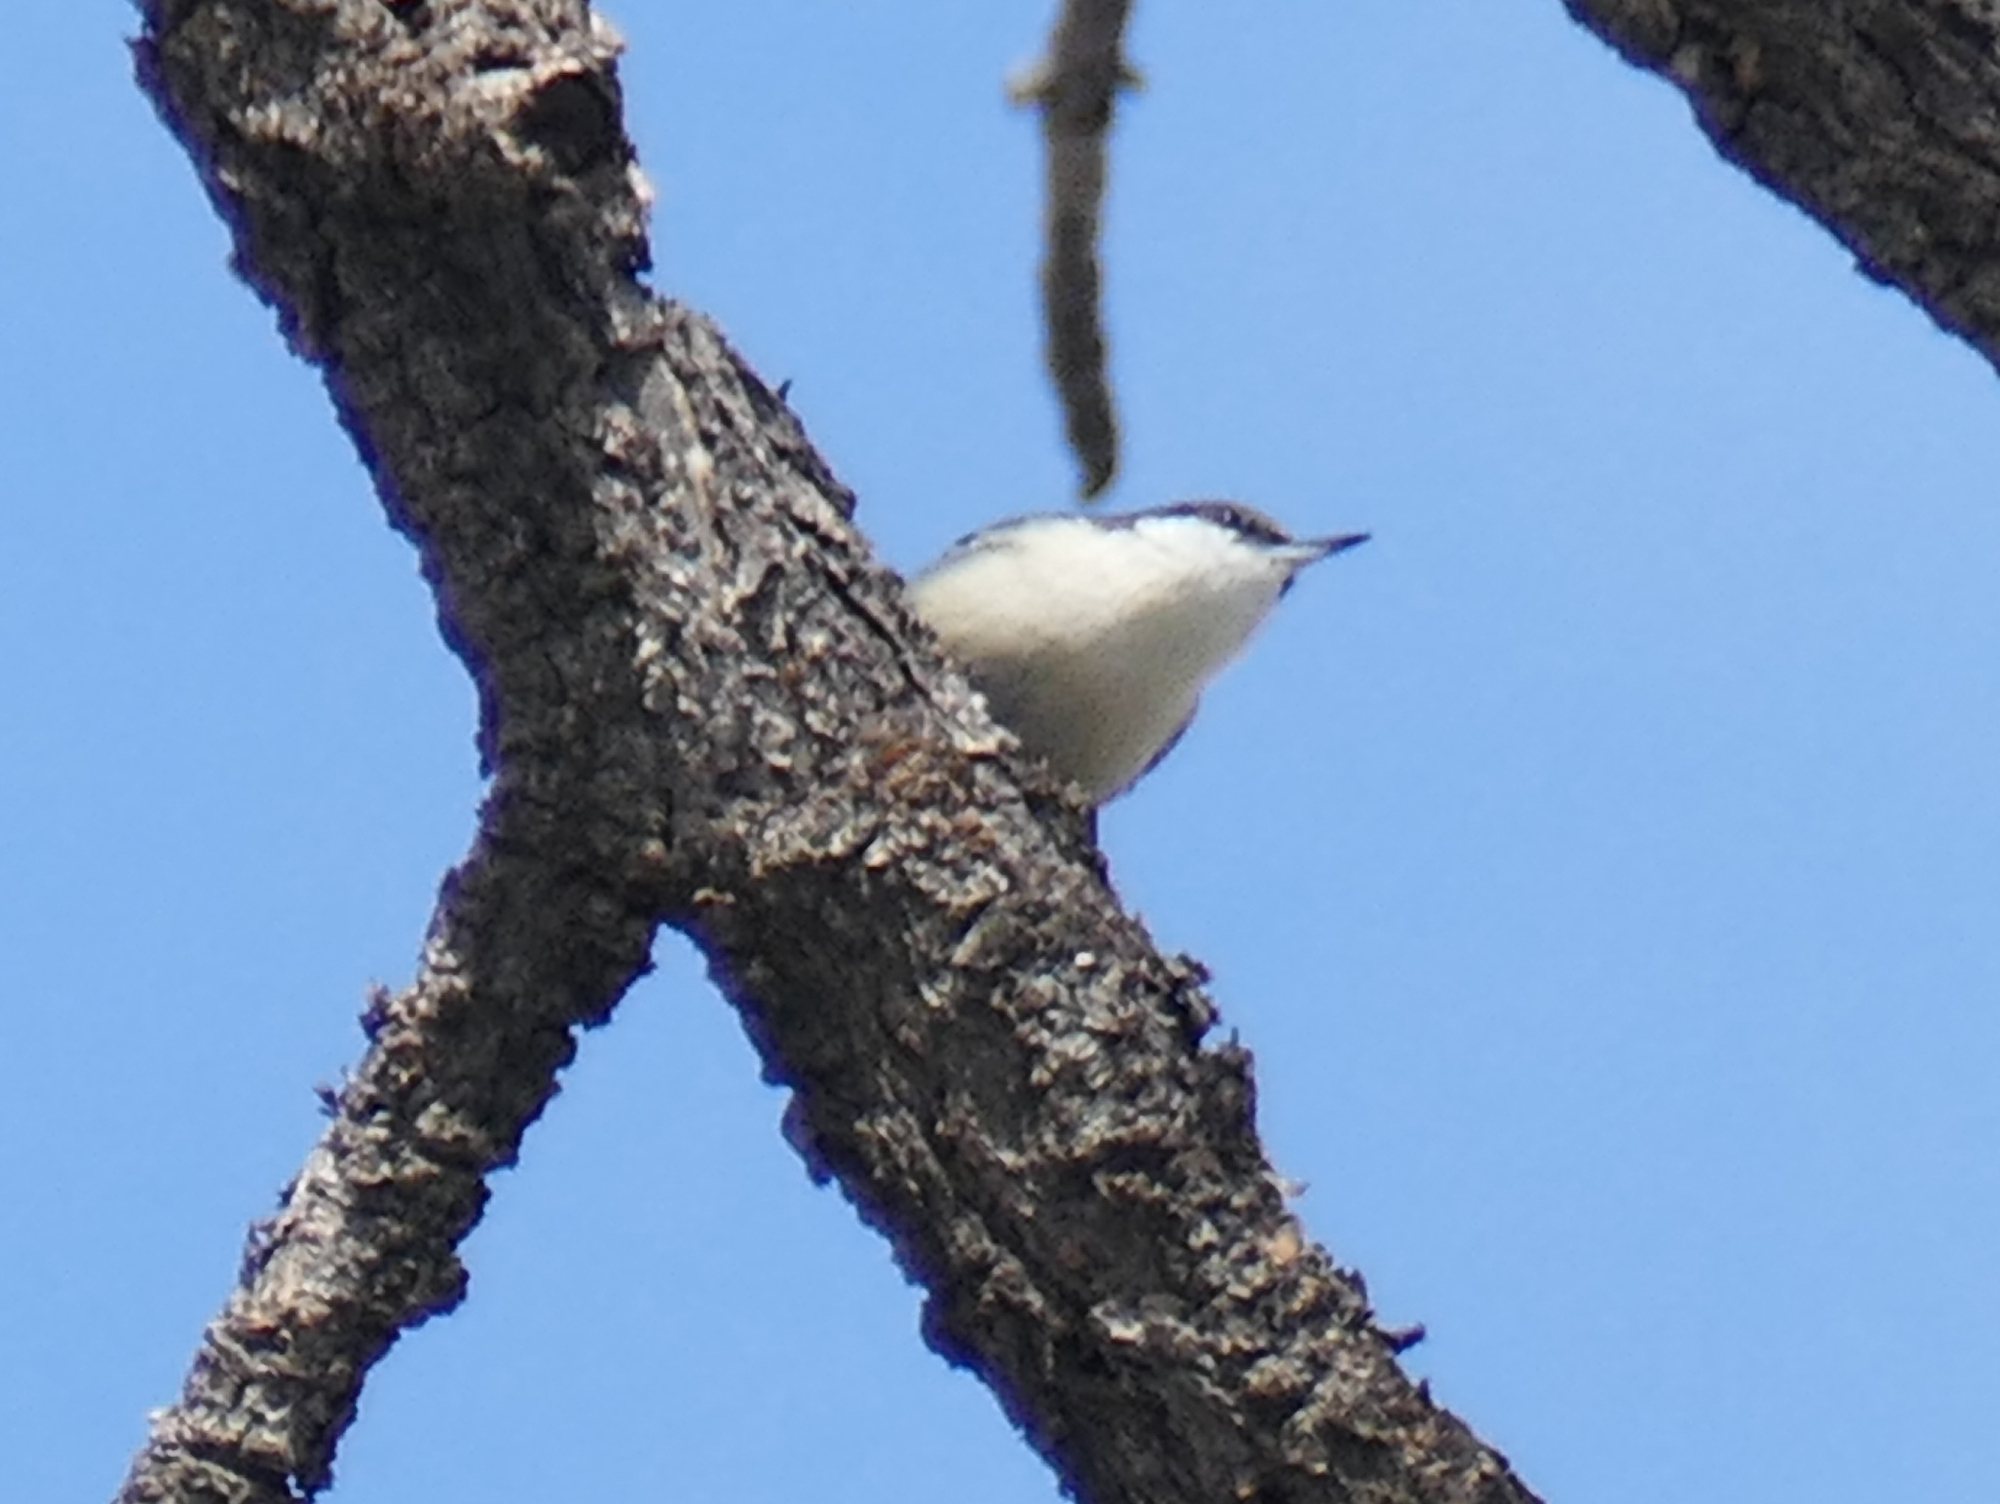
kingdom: Animalia
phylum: Chordata
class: Aves
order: Passeriformes
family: Sittidae
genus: Sitta
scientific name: Sitta pygmaea
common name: Pygmy nuthatch
